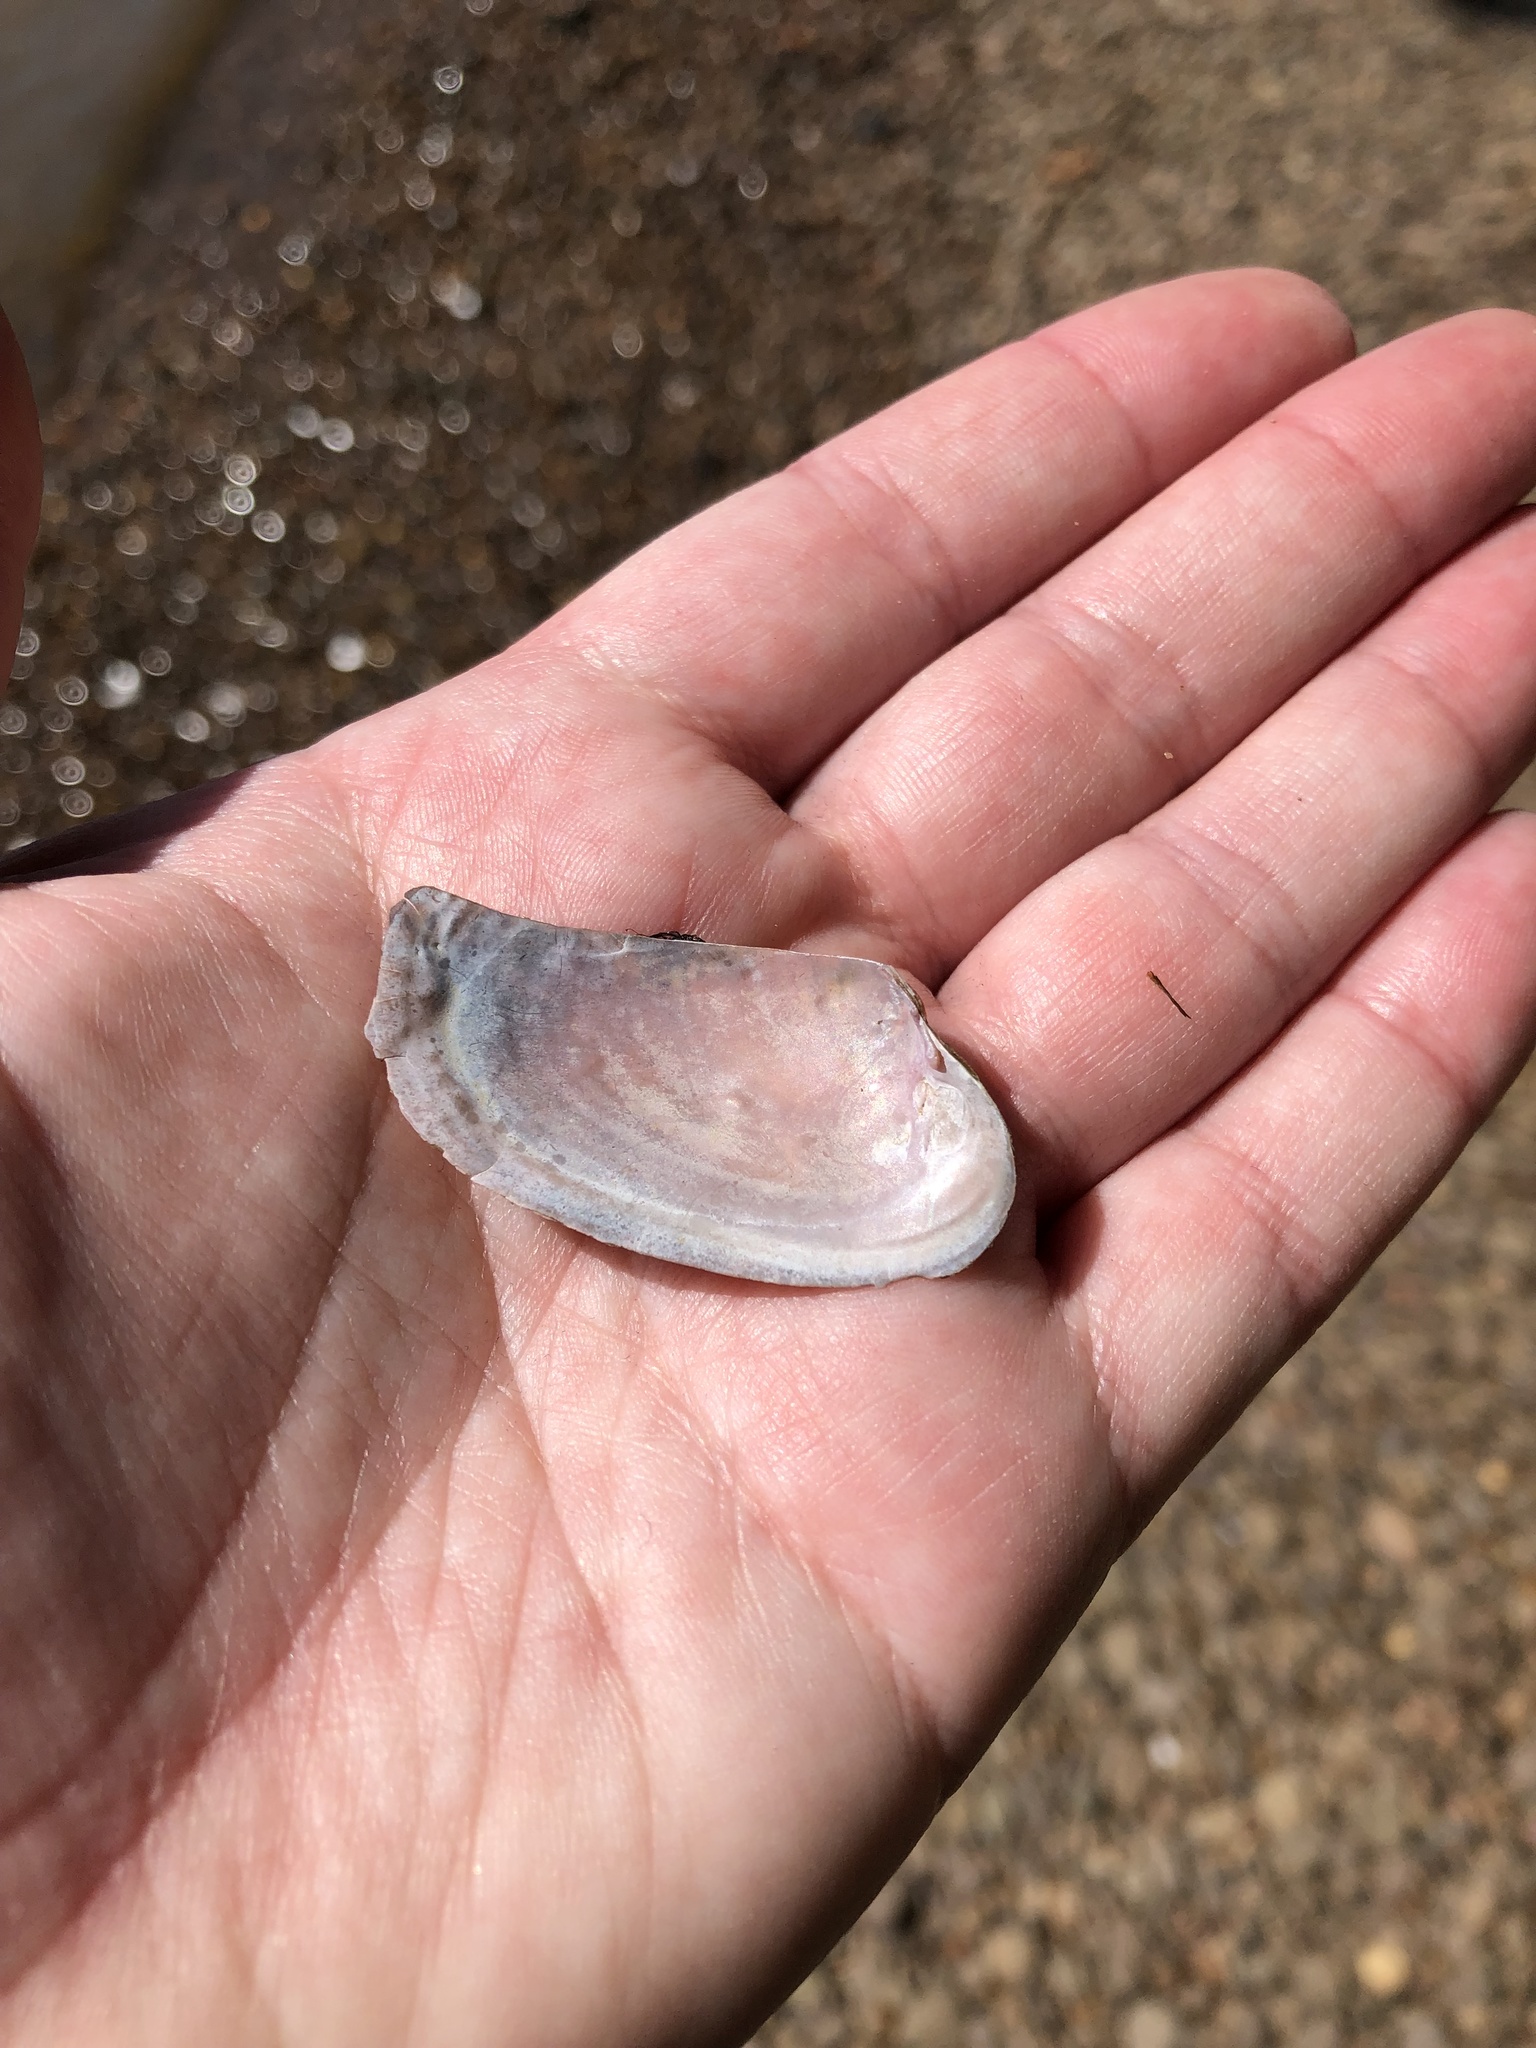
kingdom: Animalia
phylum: Mollusca
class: Bivalvia
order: Unionida
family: Unionidae
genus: Potamilus
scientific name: Potamilus alatus
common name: Pink heelsplitter
